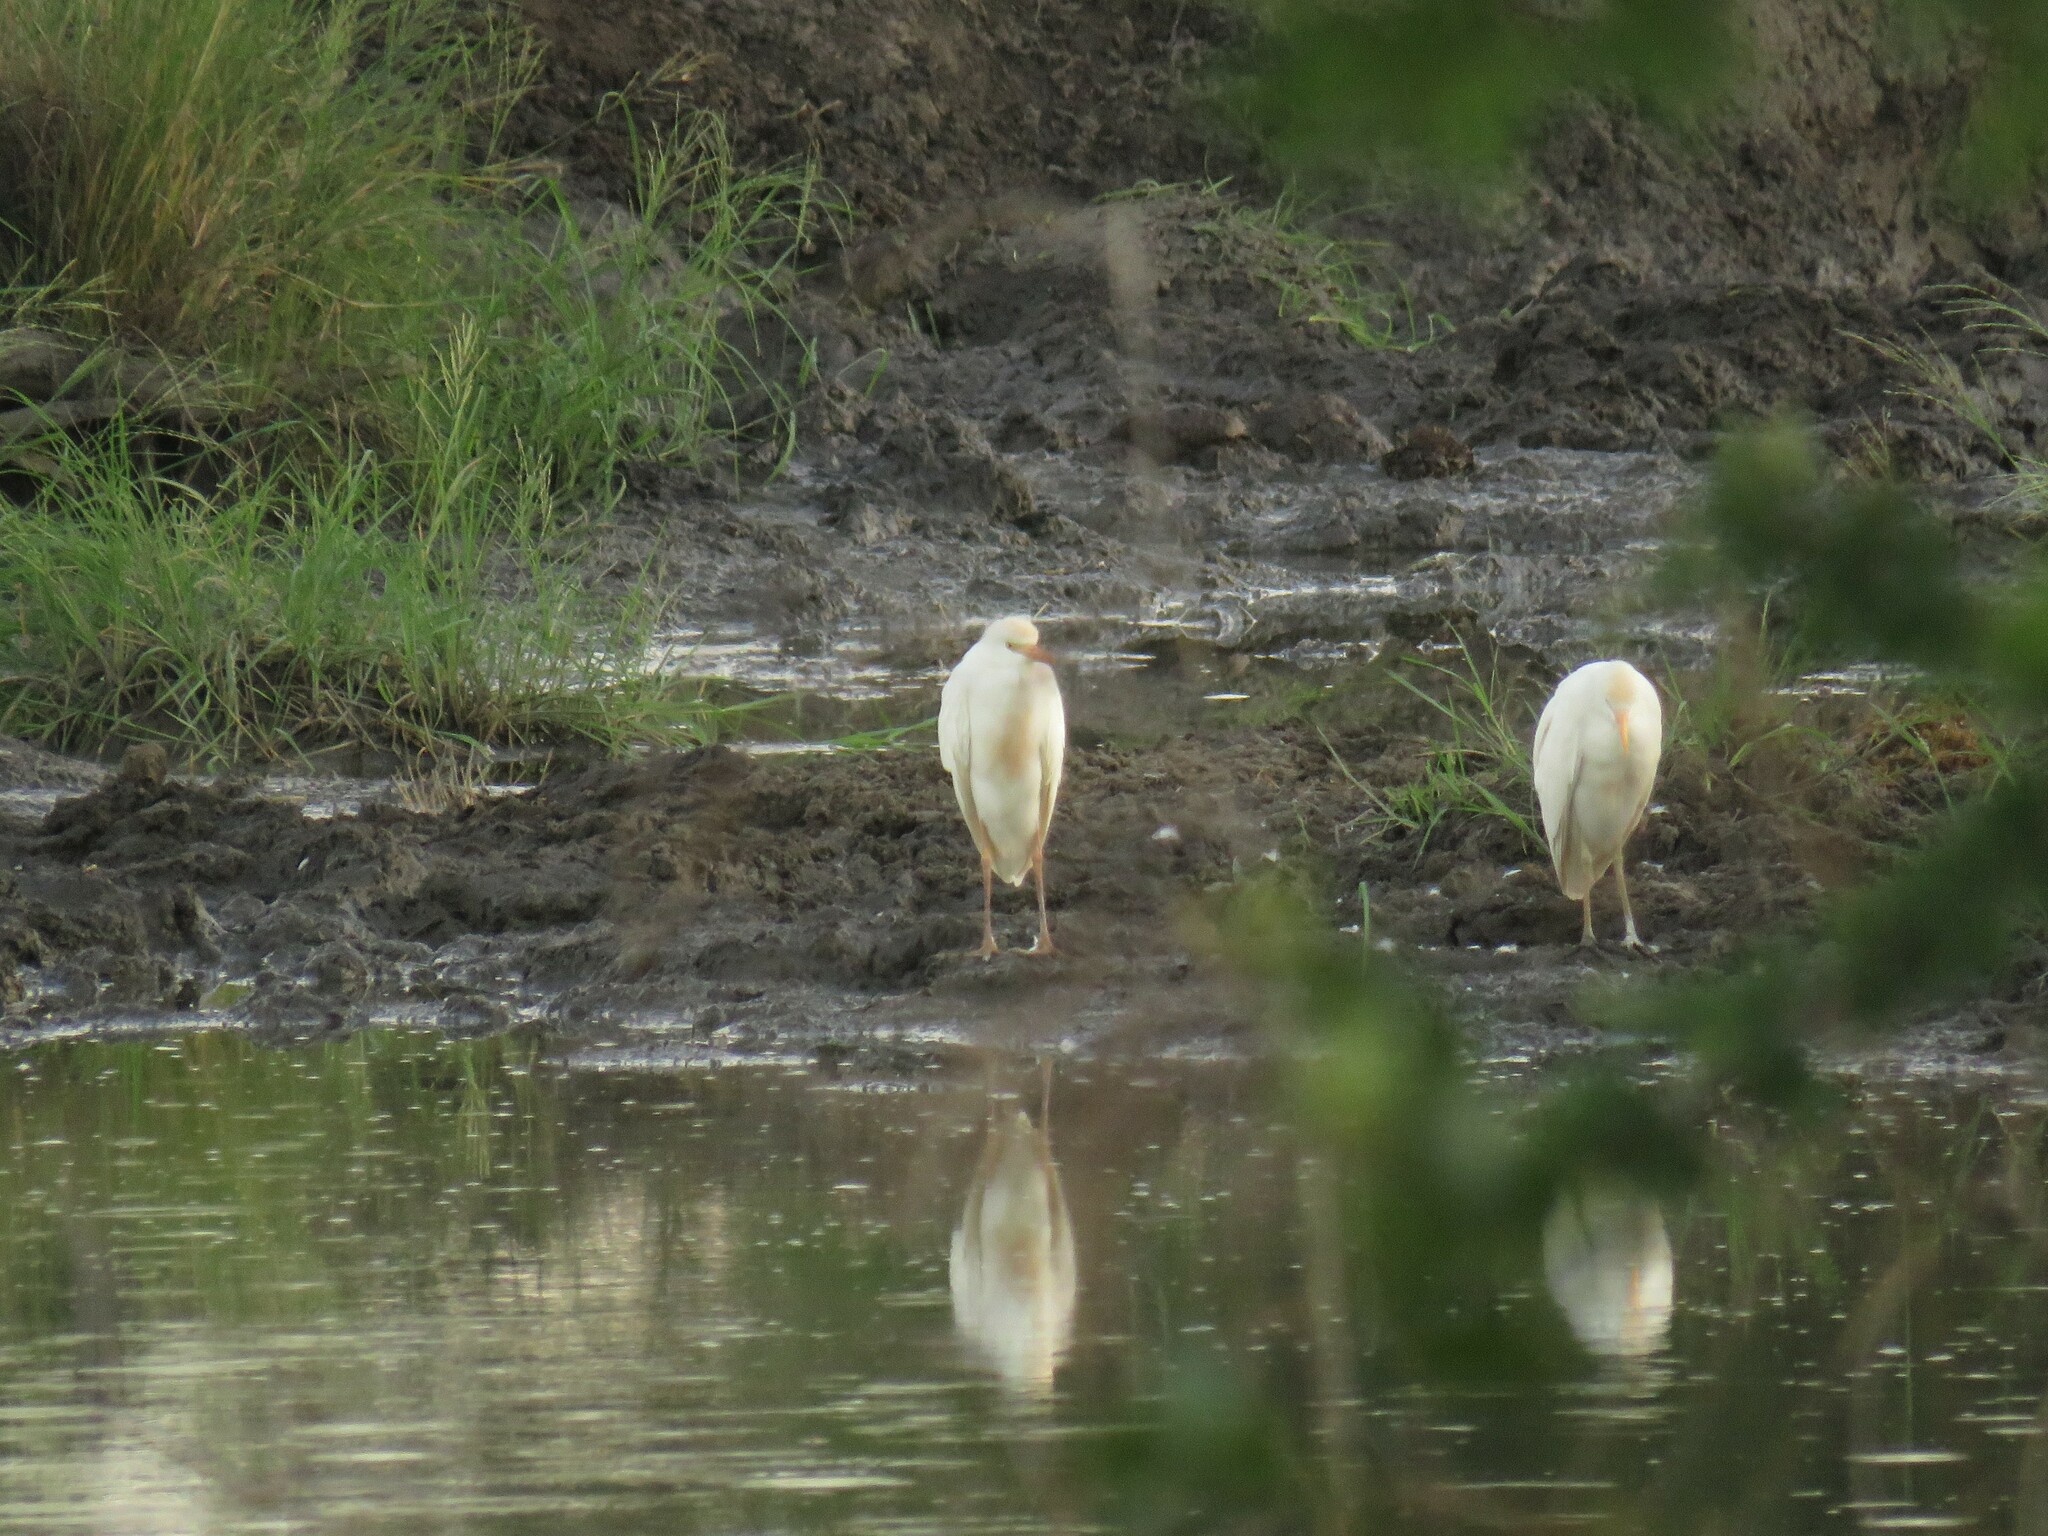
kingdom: Animalia
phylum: Chordata
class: Aves
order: Pelecaniformes
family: Ardeidae
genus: Bubulcus
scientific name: Bubulcus ibis
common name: Cattle egret
